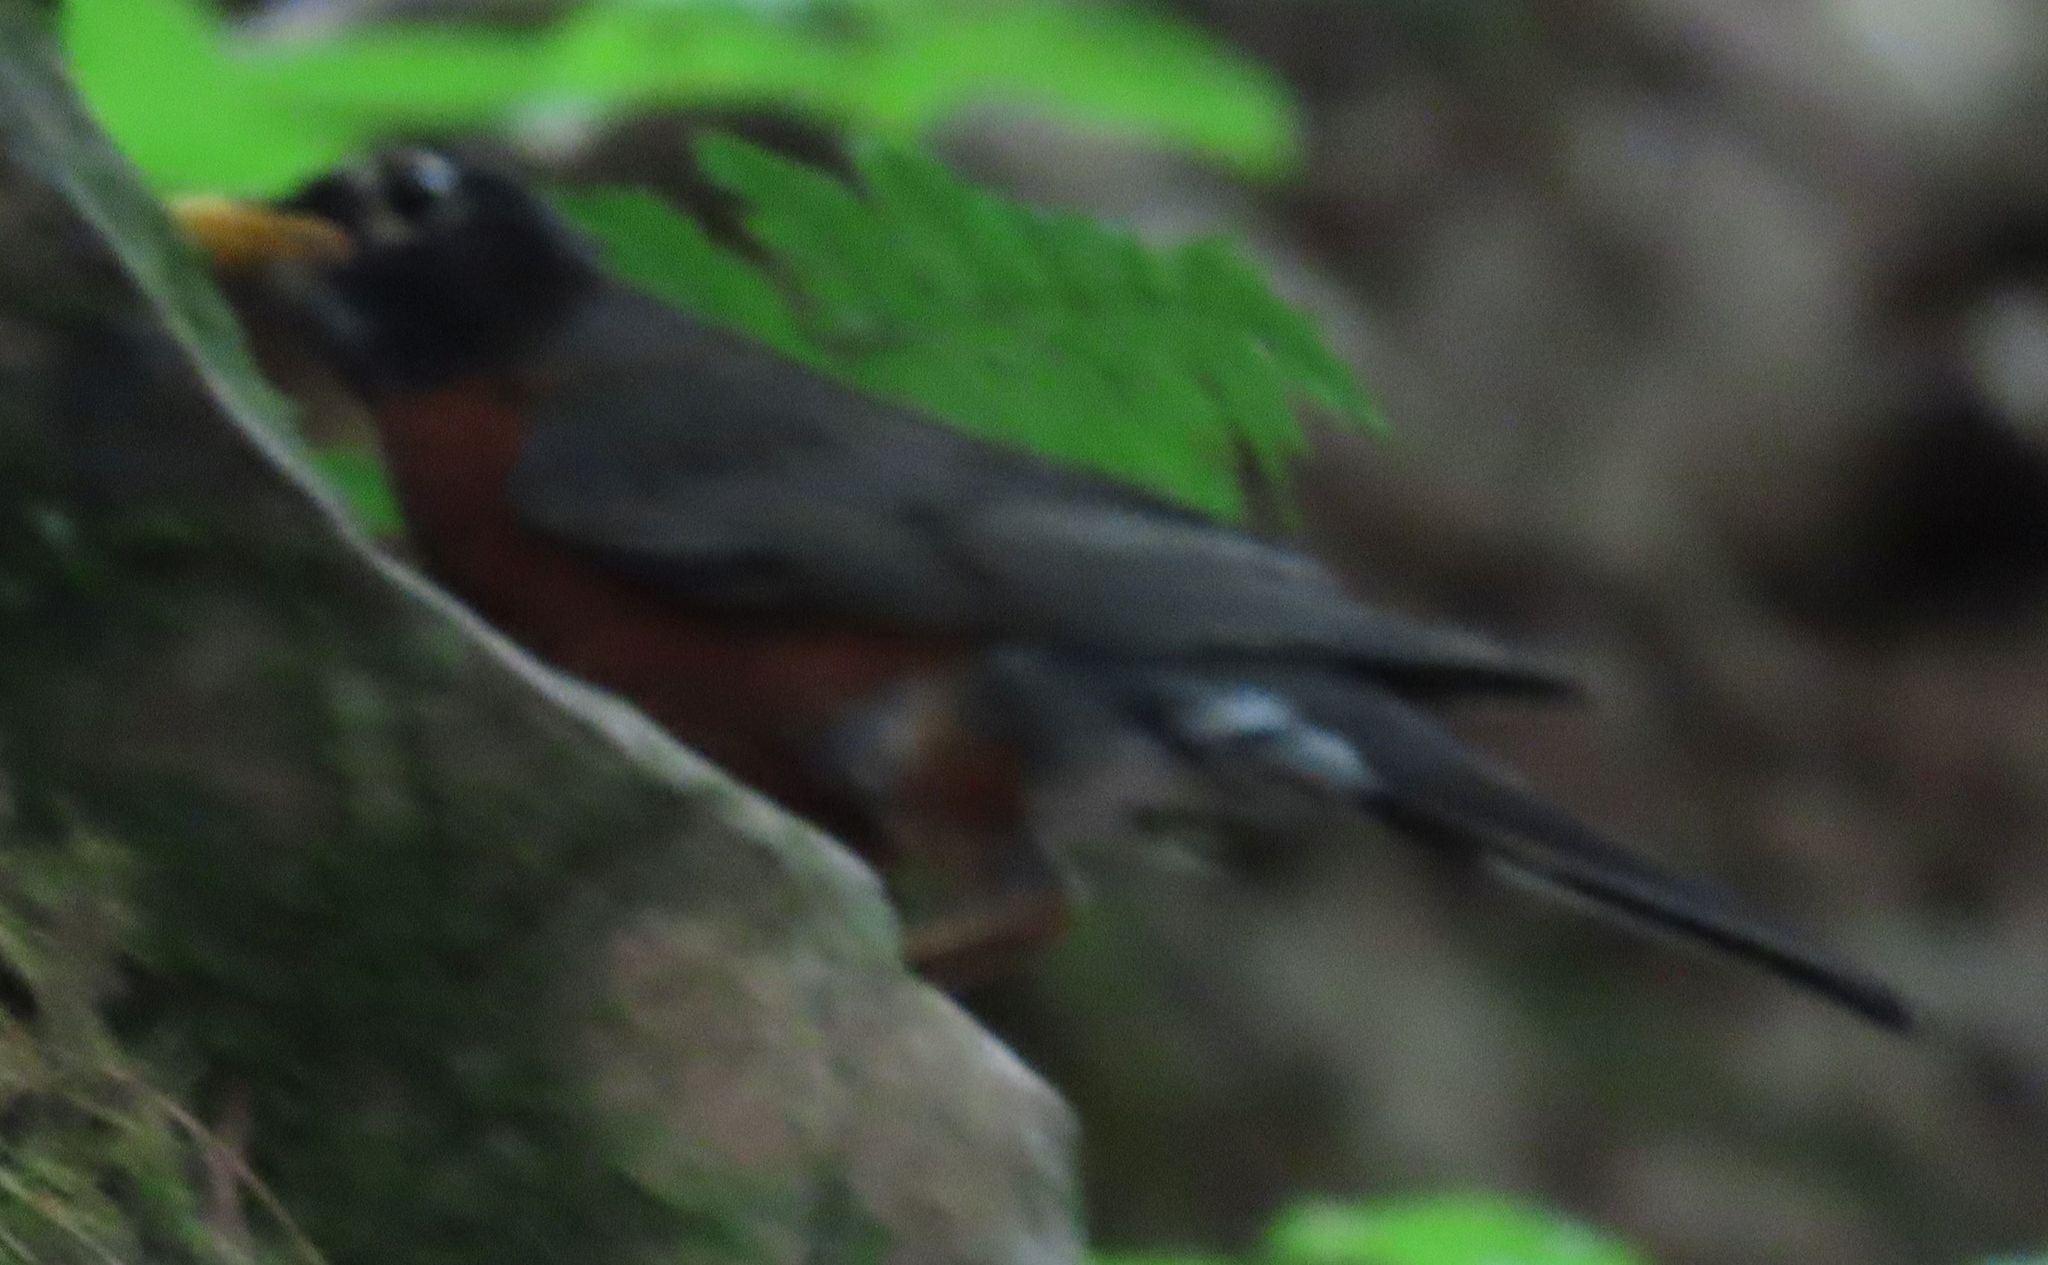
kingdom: Animalia
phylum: Chordata
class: Aves
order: Passeriformes
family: Turdidae
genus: Turdus
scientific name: Turdus migratorius
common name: American robin
